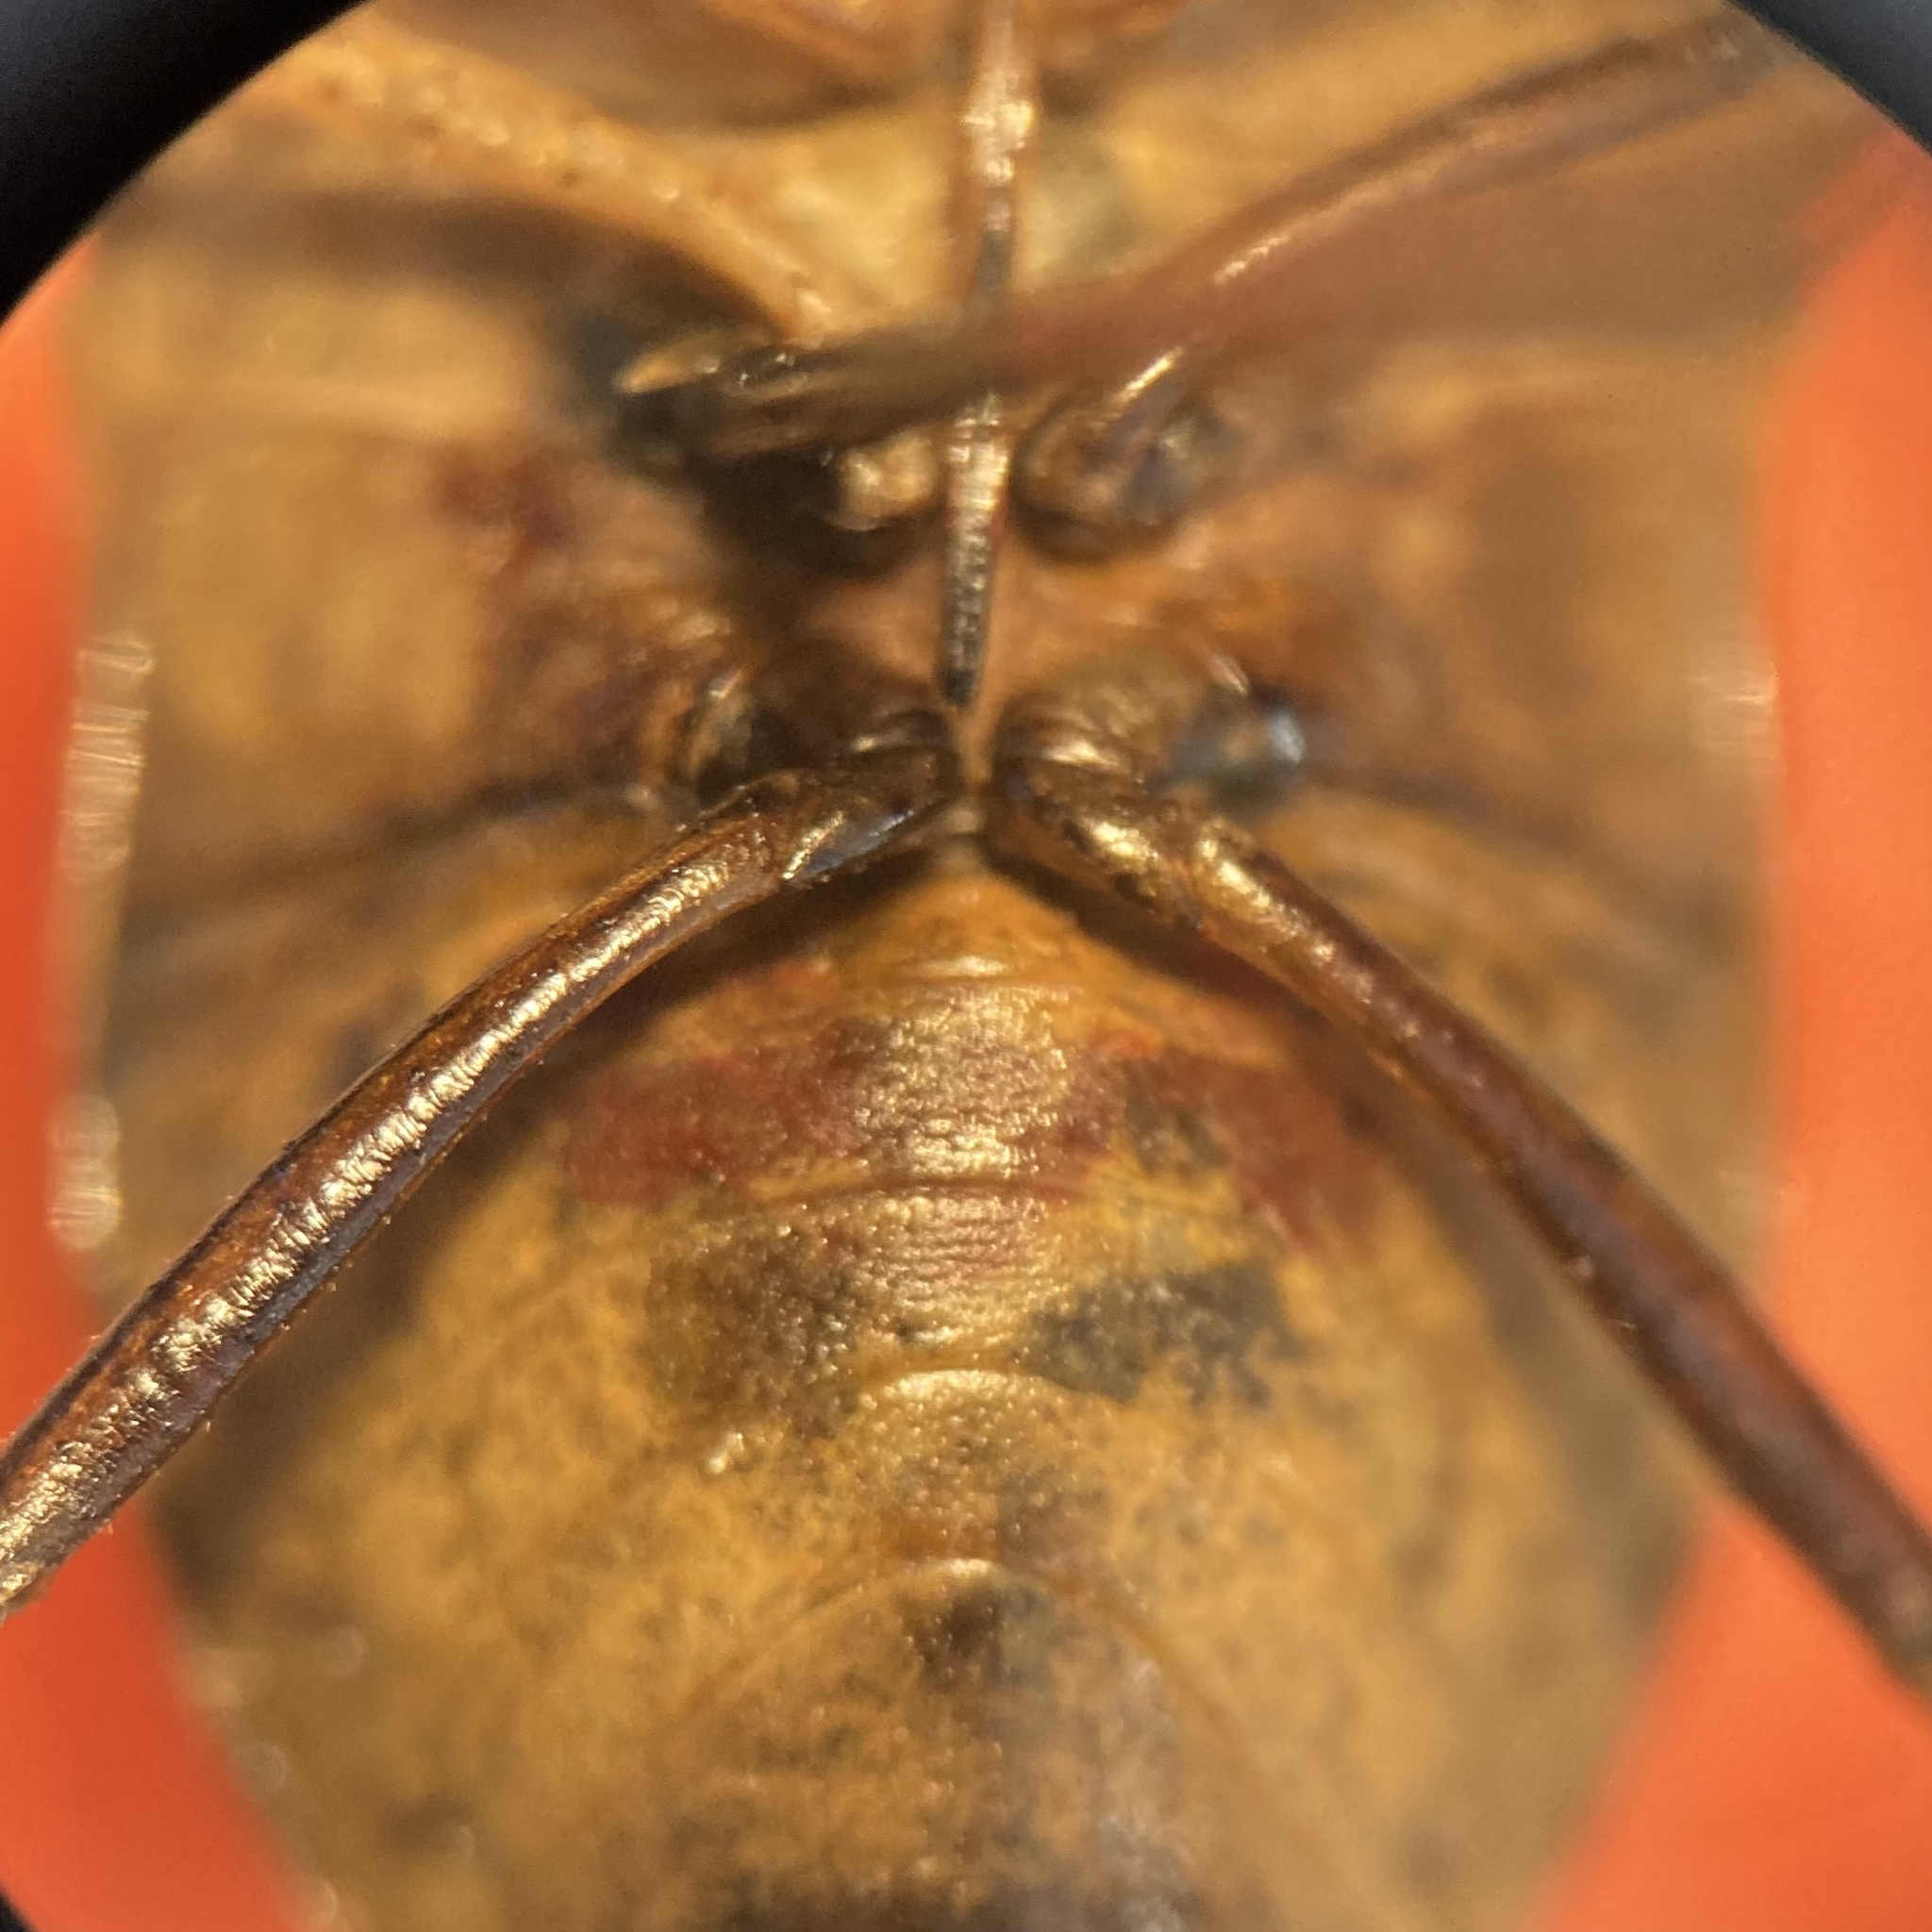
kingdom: Animalia
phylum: Arthropoda
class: Insecta
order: Hemiptera
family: Pentatomidae
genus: Euschistus
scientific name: Euschistus servus
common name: Brown stink bug
